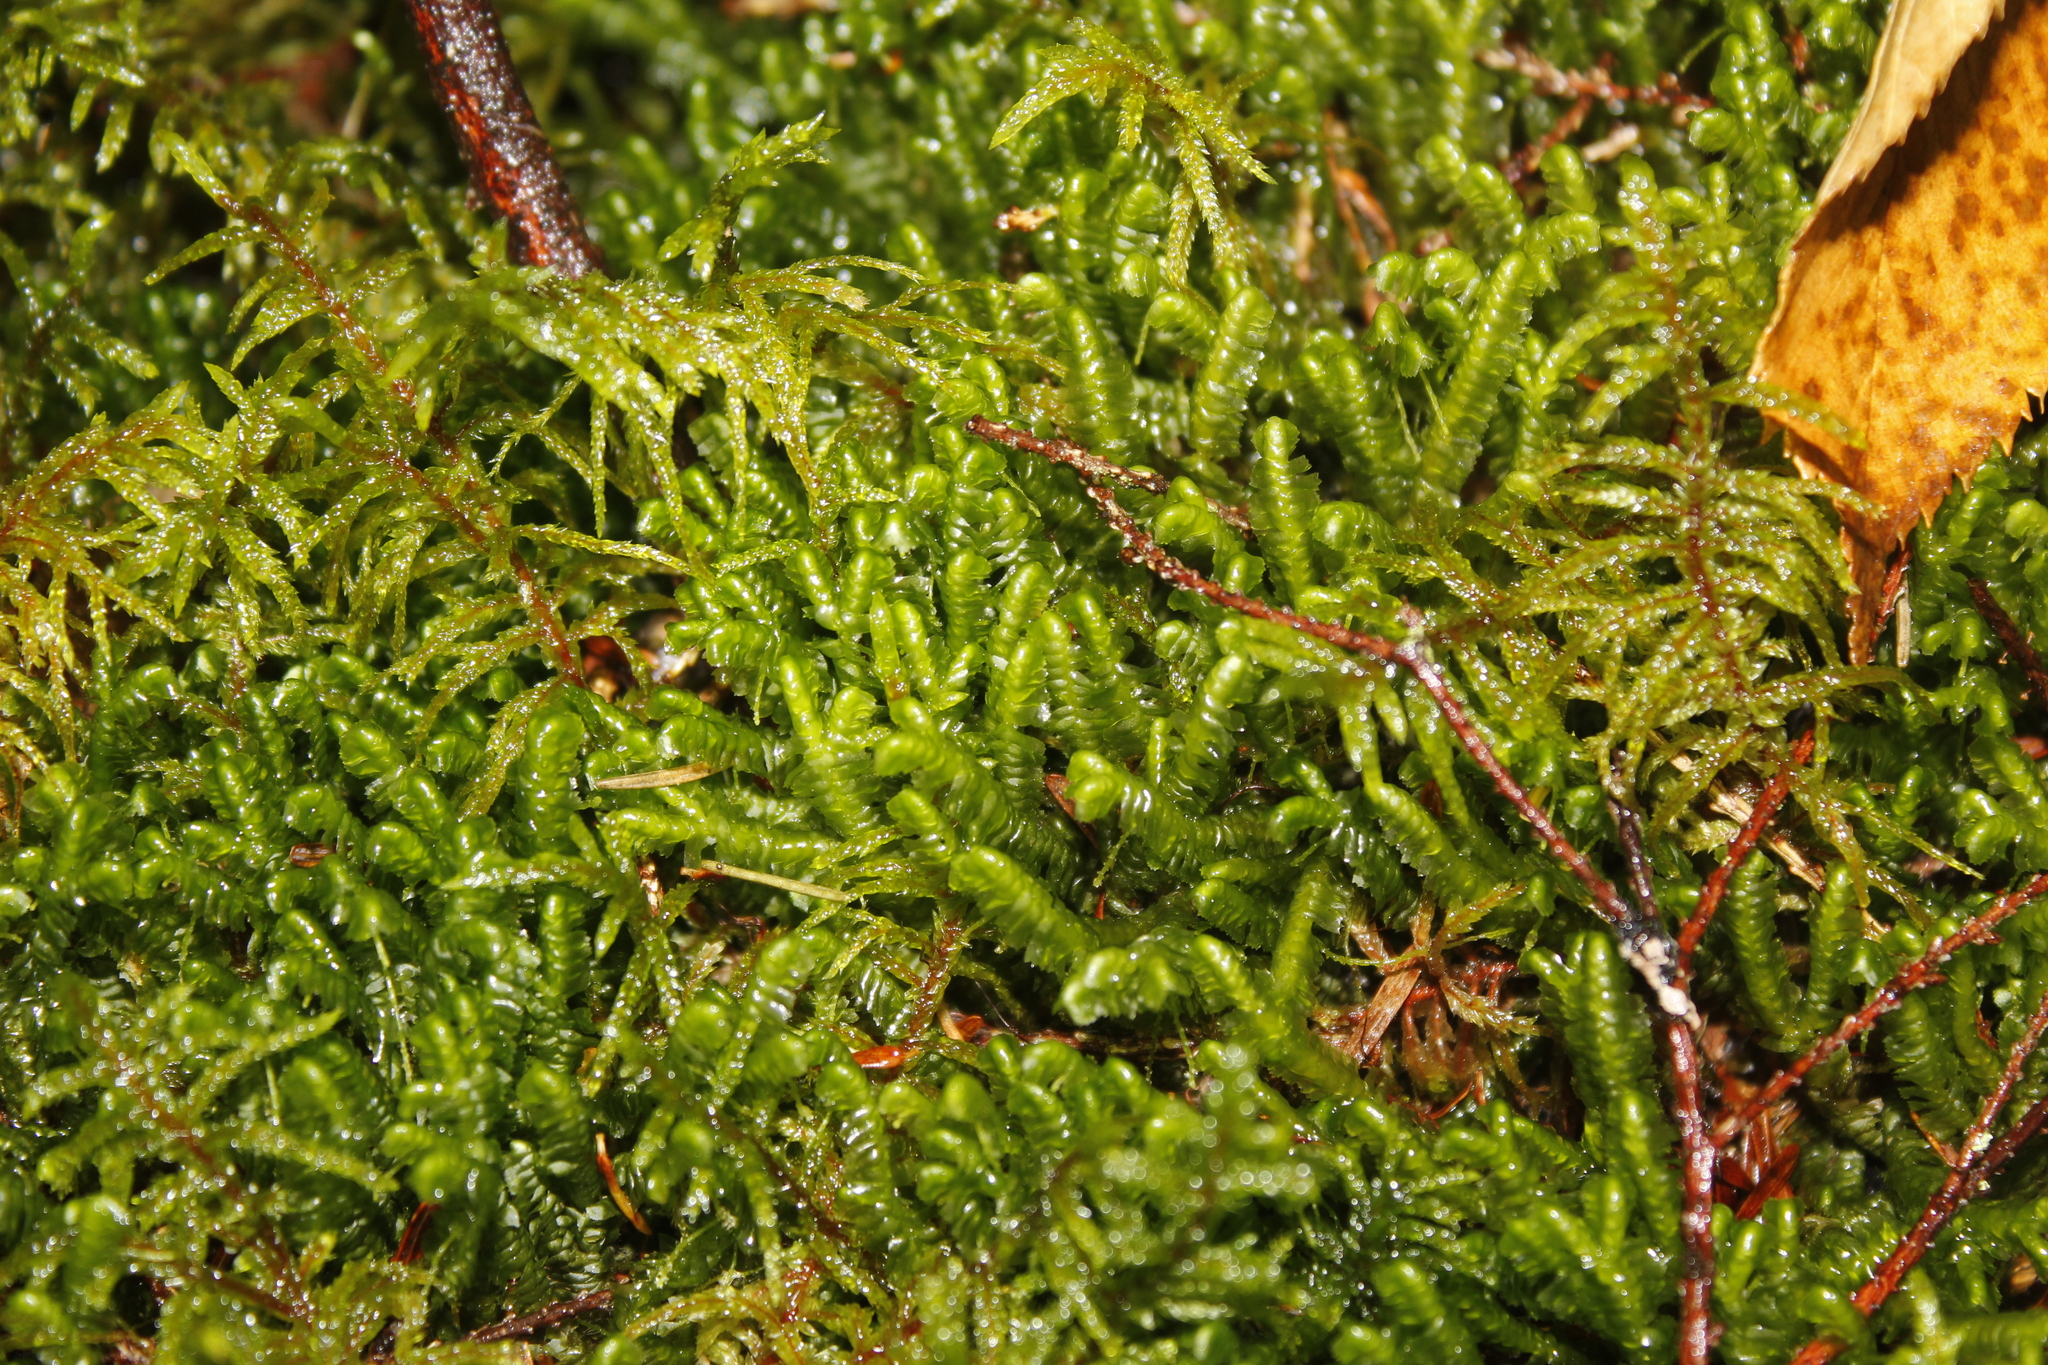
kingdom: Plantae
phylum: Marchantiophyta
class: Jungermanniopsida
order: Jungermanniales
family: Lepidoziaceae
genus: Bazzania
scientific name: Bazzania trilobata
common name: Three-lobed whipwort
